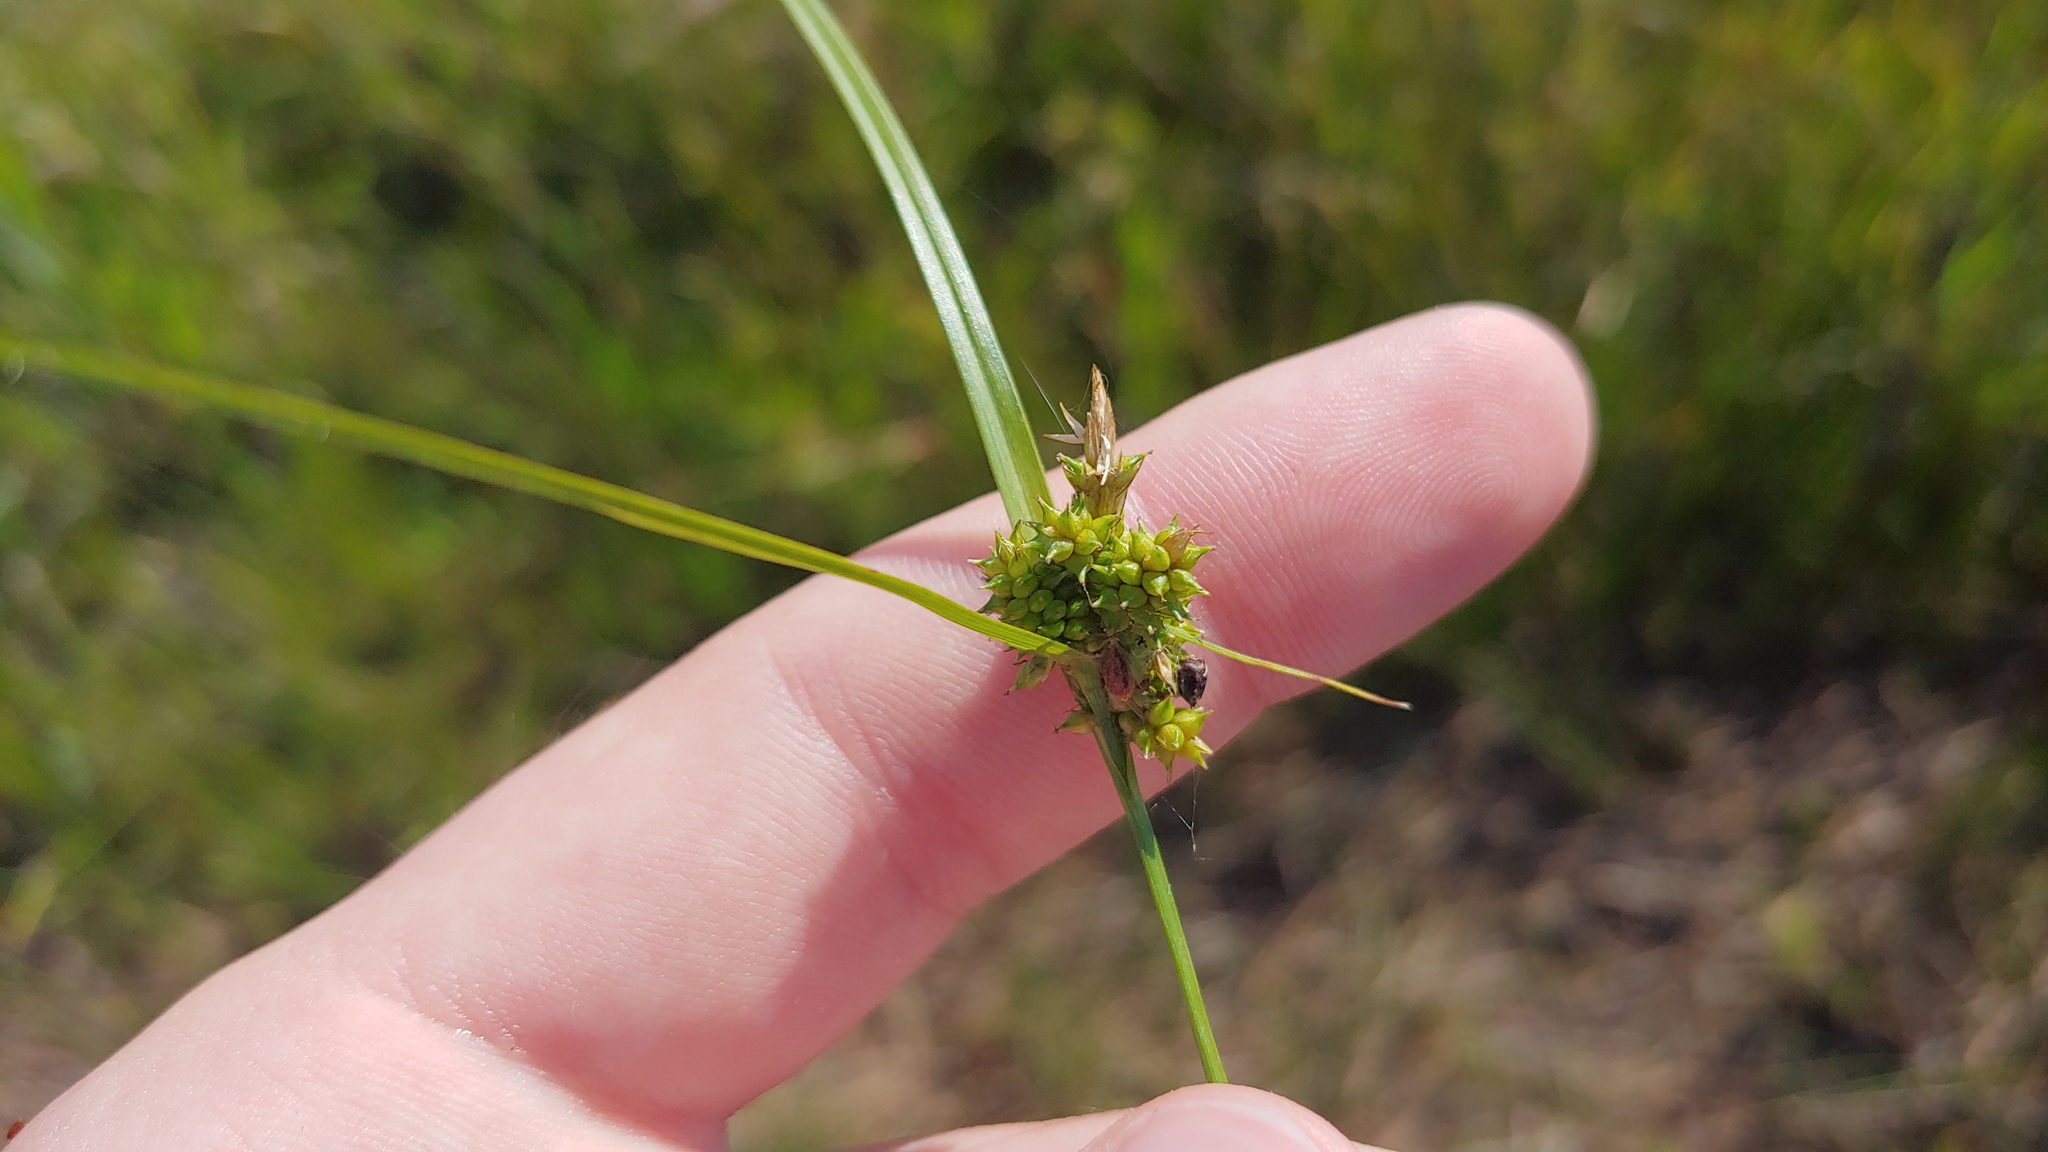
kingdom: Plantae
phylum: Tracheophyta
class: Liliopsida
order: Poales
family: Cyperaceae
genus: Carex
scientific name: Carex
